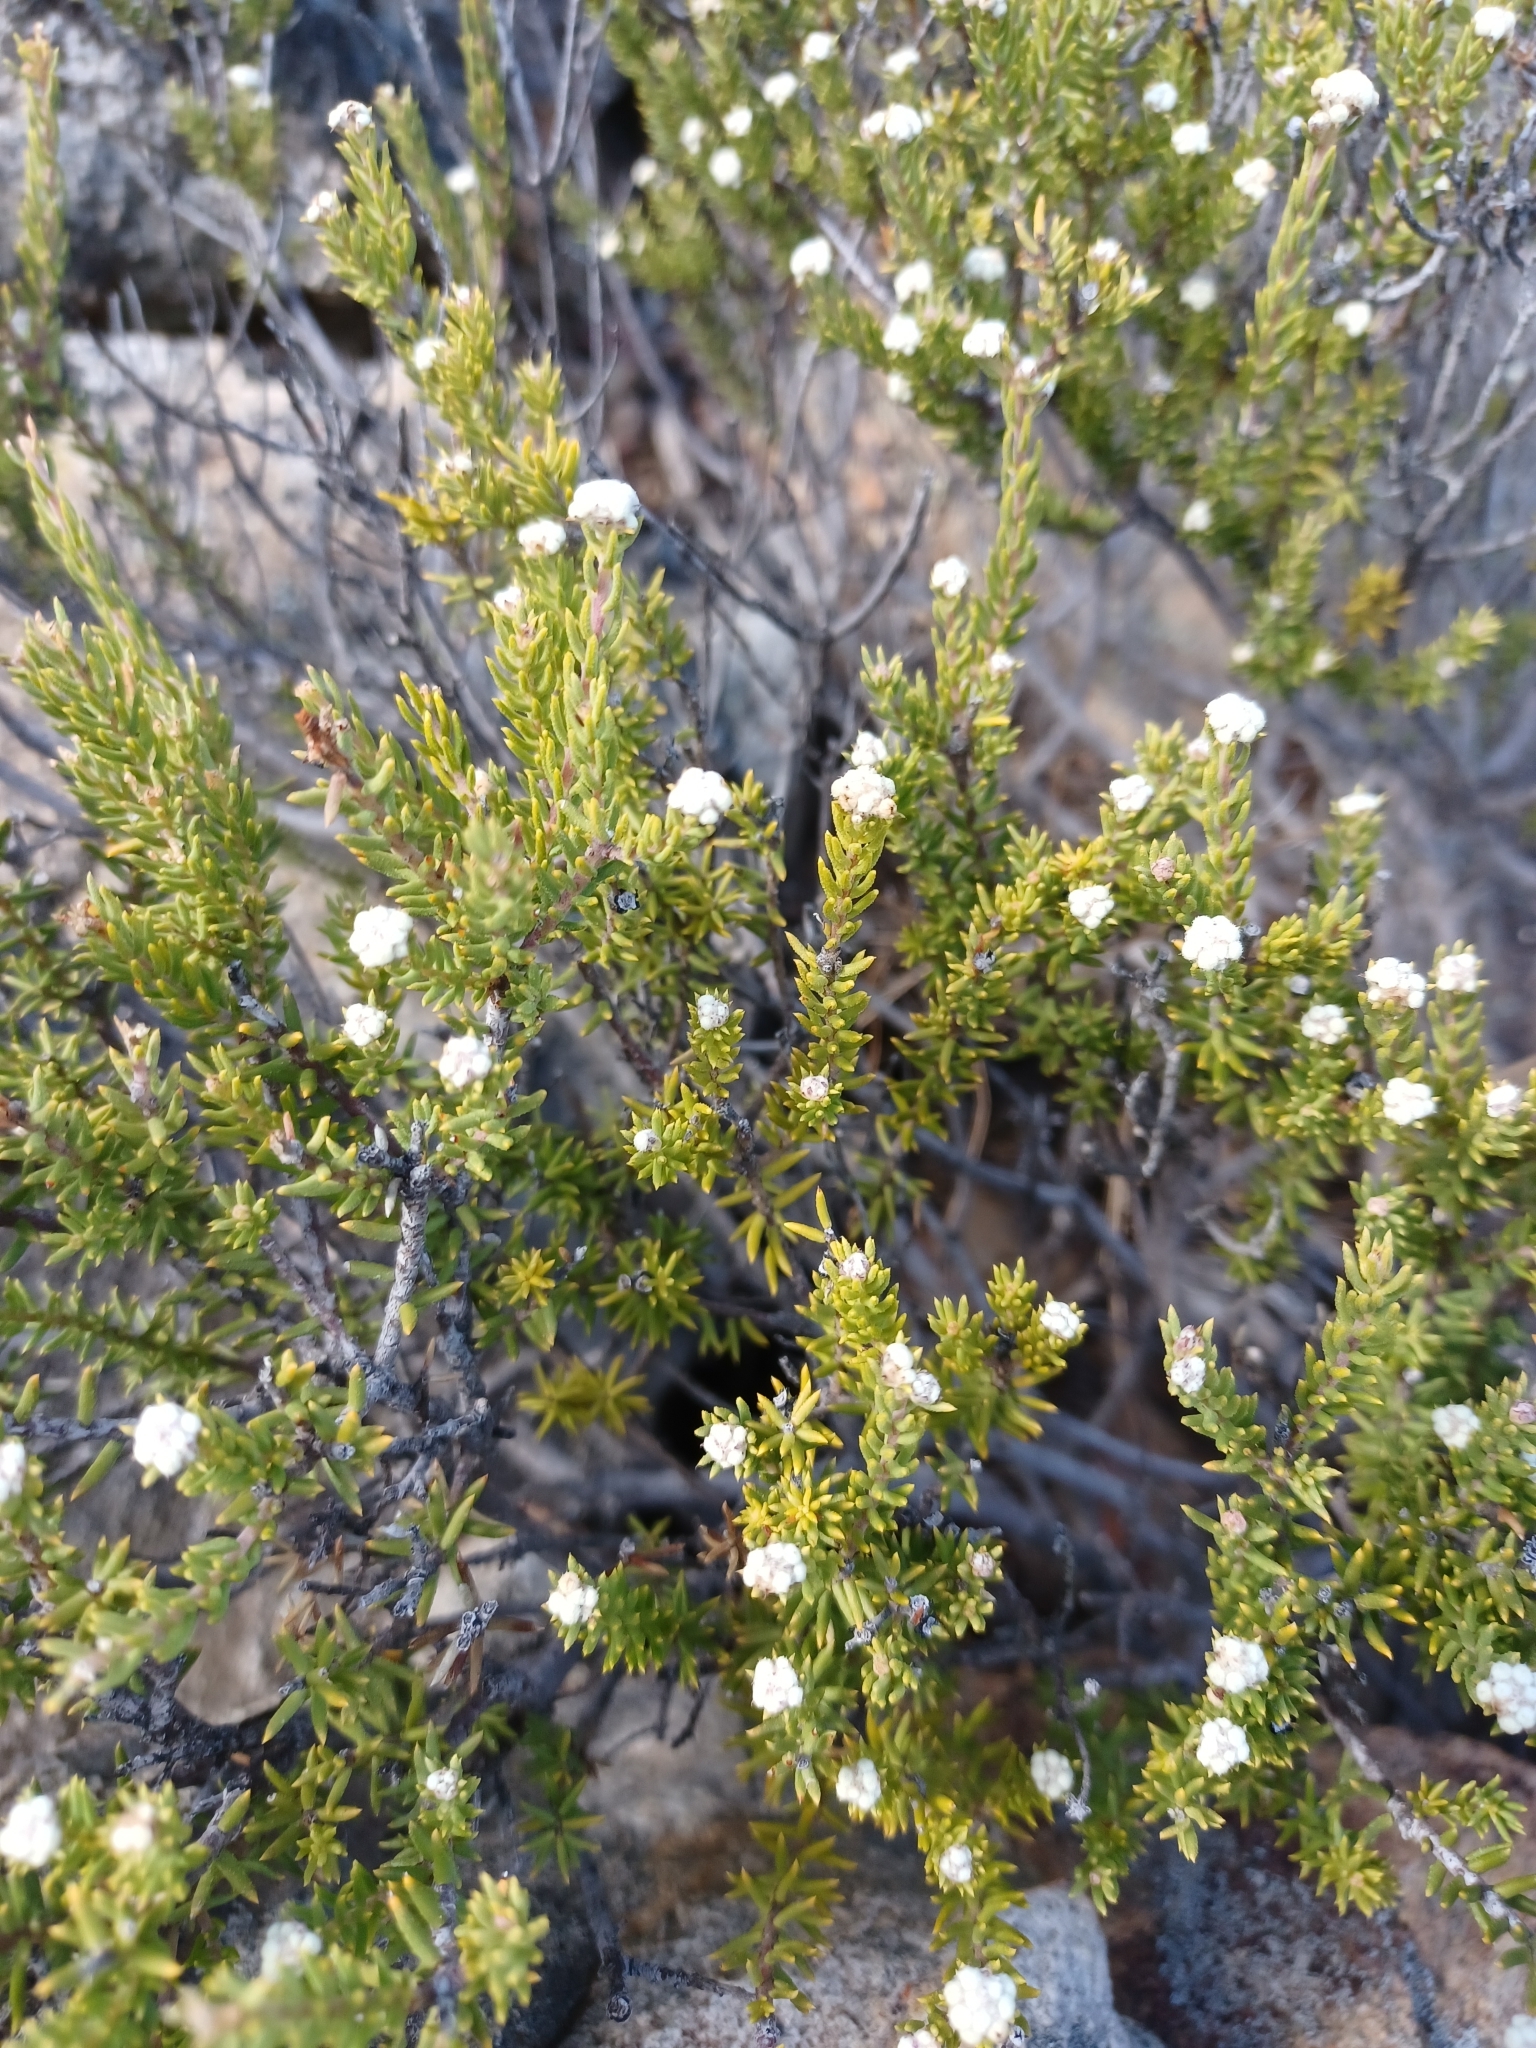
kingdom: Plantae
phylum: Tracheophyta
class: Magnoliopsida
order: Rosales
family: Rhamnaceae
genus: Phylica
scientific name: Phylica rogersii
